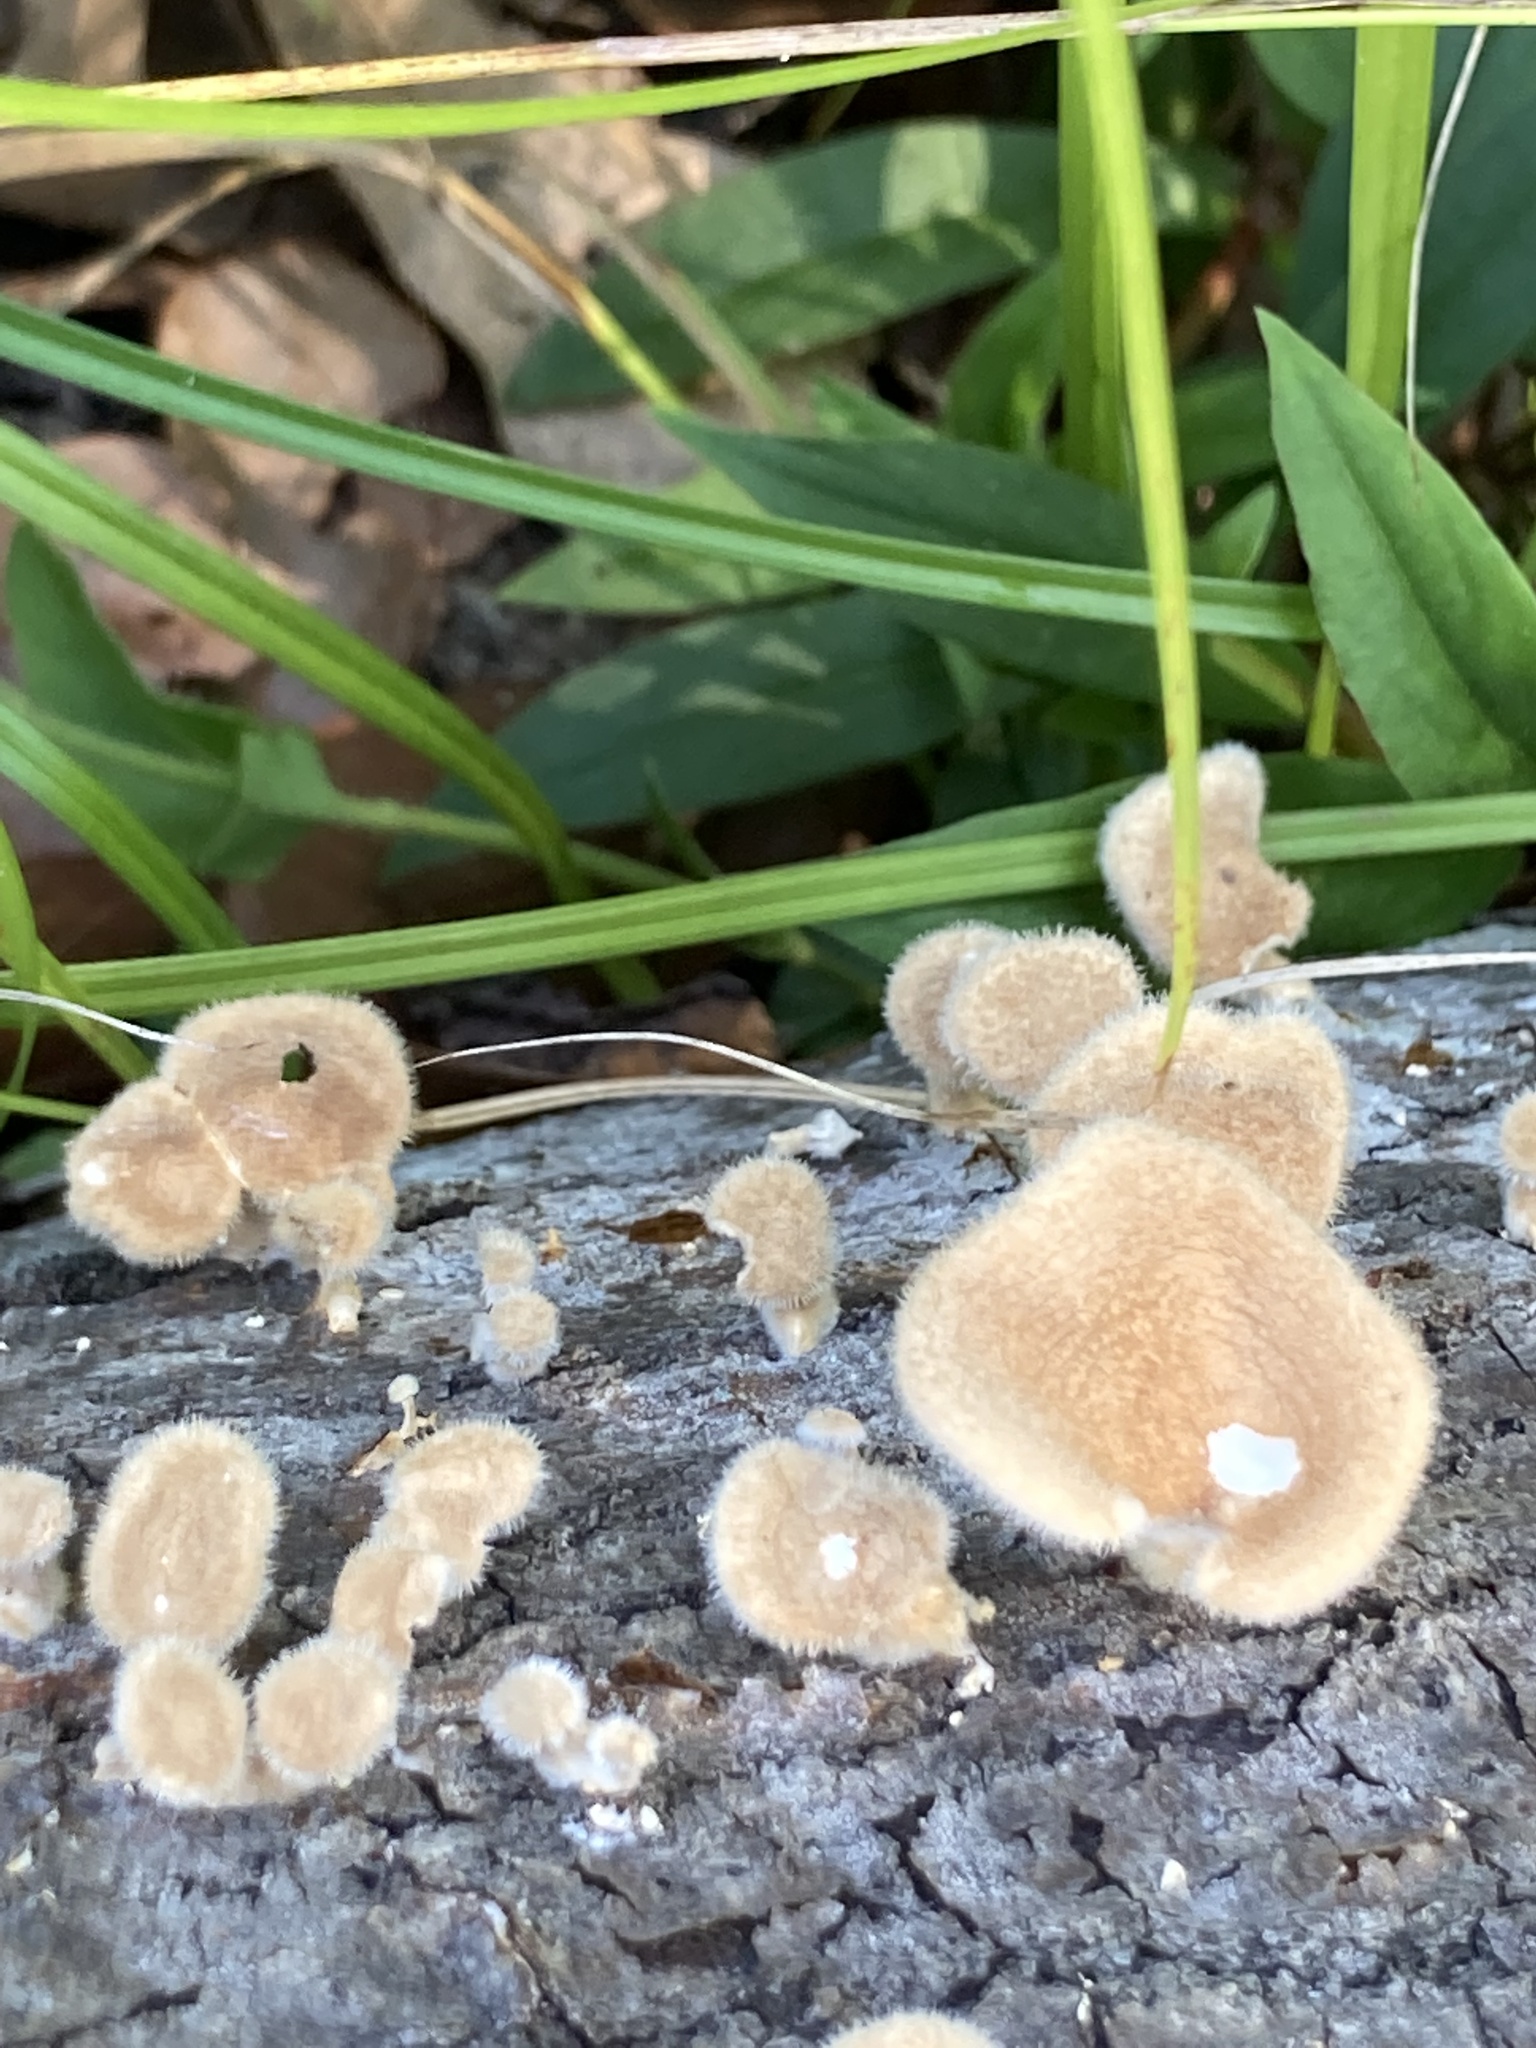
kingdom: Fungi
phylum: Basidiomycota
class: Agaricomycetes
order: Polyporales
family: Panaceae
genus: Panus
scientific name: Panus neostrigosus
